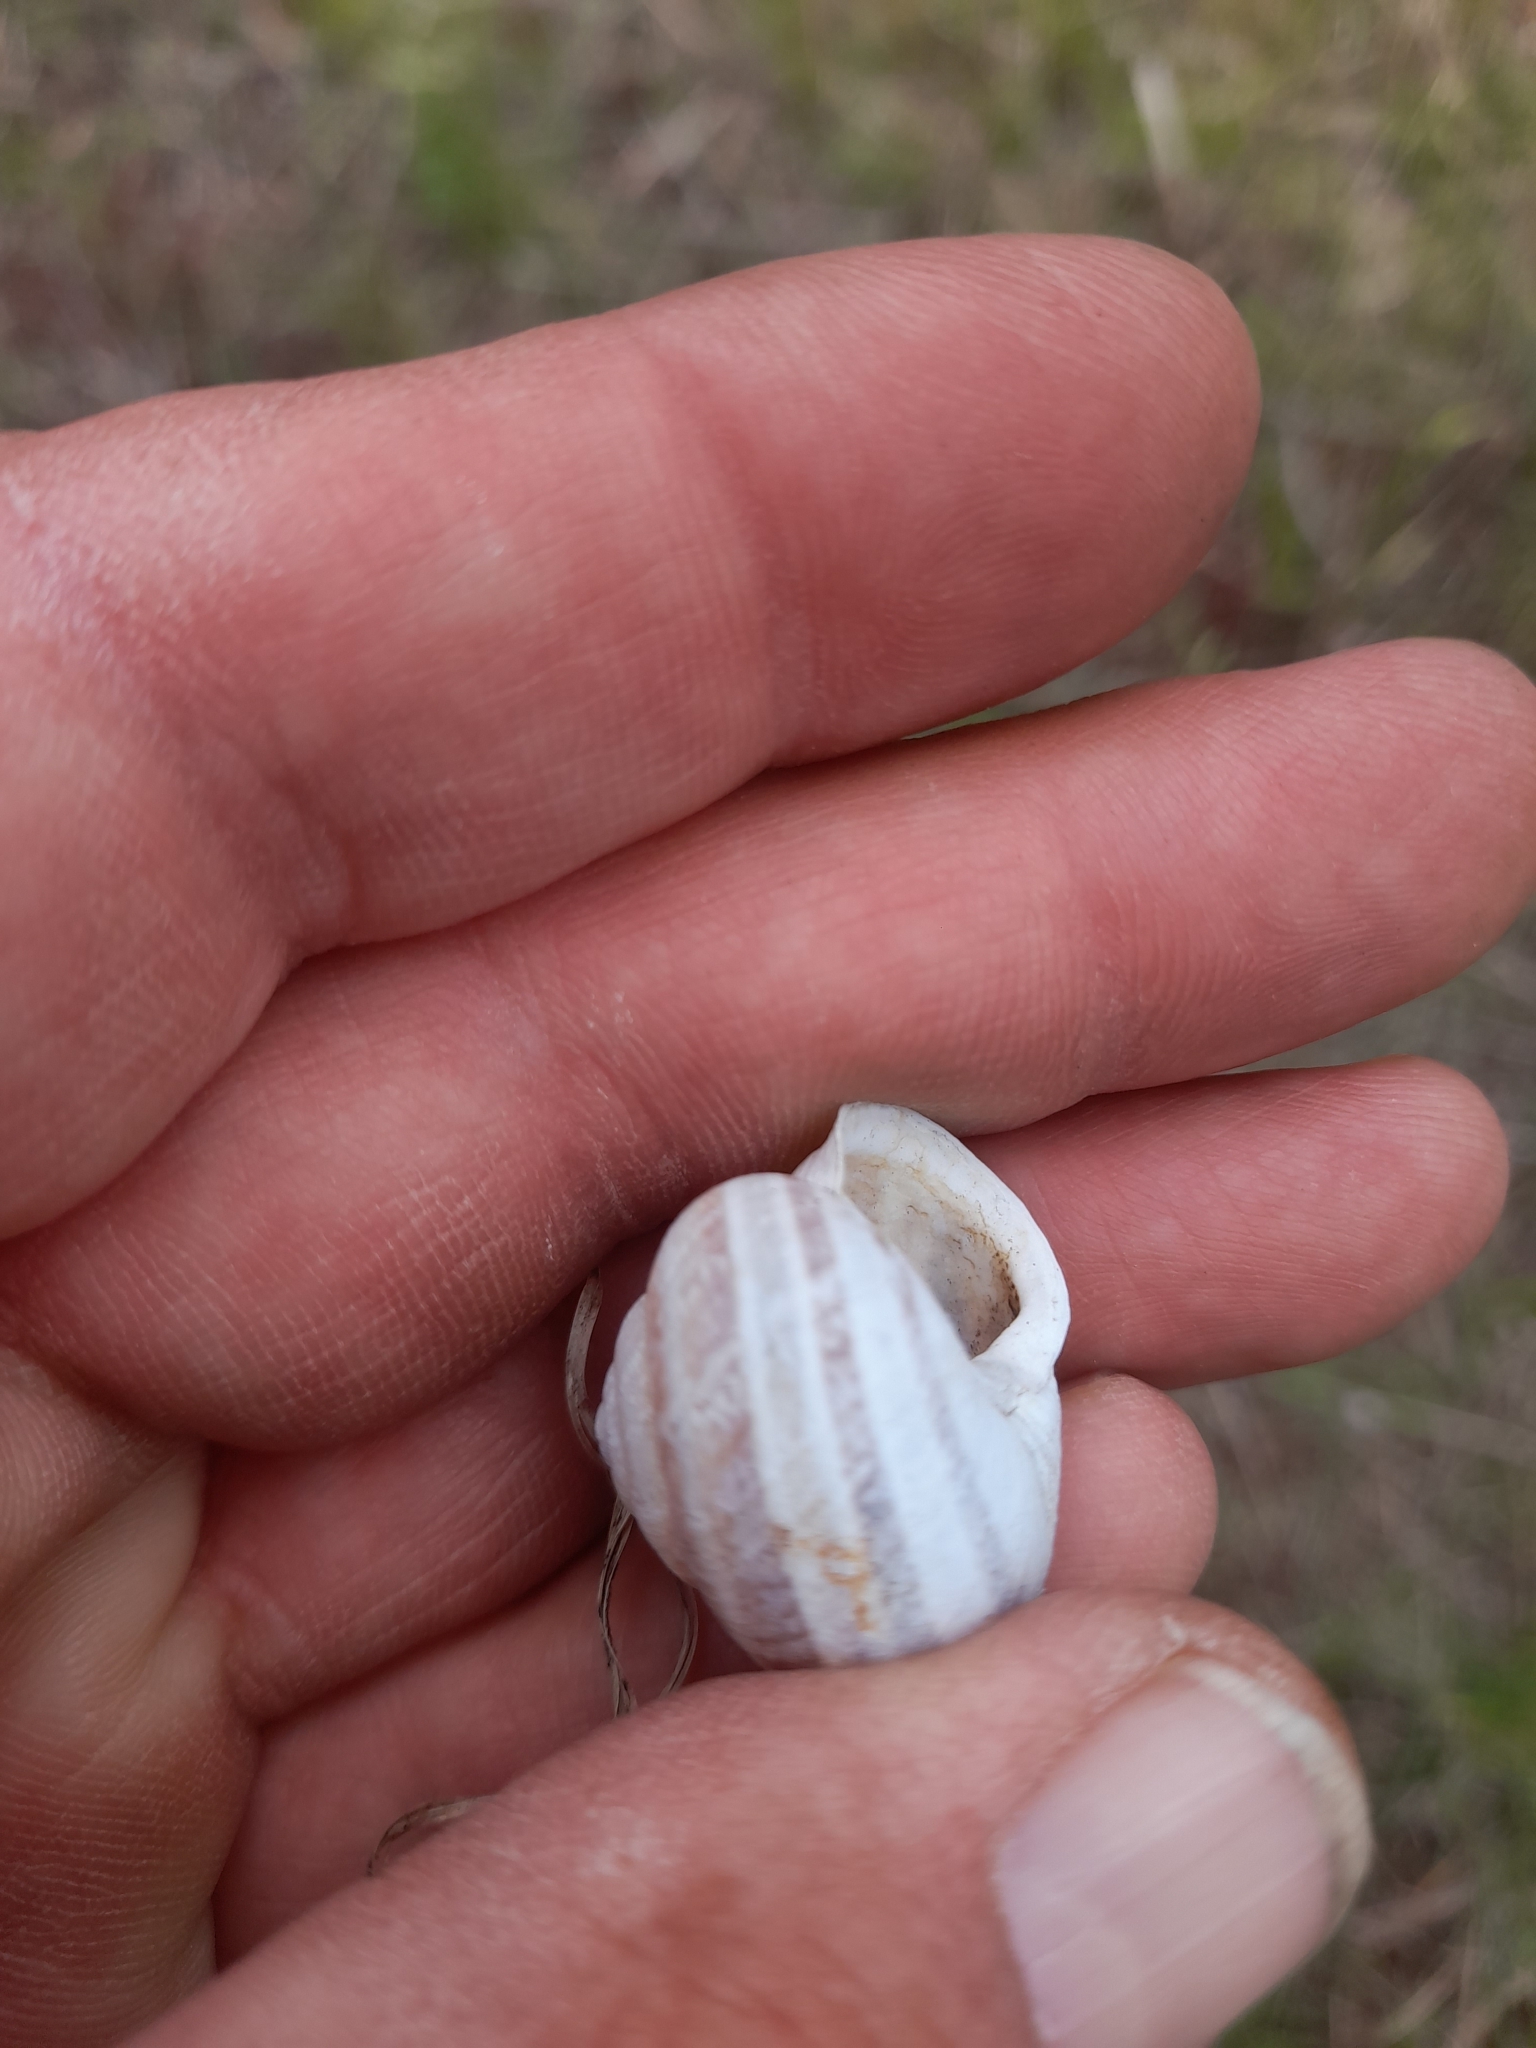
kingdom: Animalia
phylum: Mollusca
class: Gastropoda
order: Stylommatophora
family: Helicidae
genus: Eobania
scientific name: Eobania vermiculata
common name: Chocolateband snail
